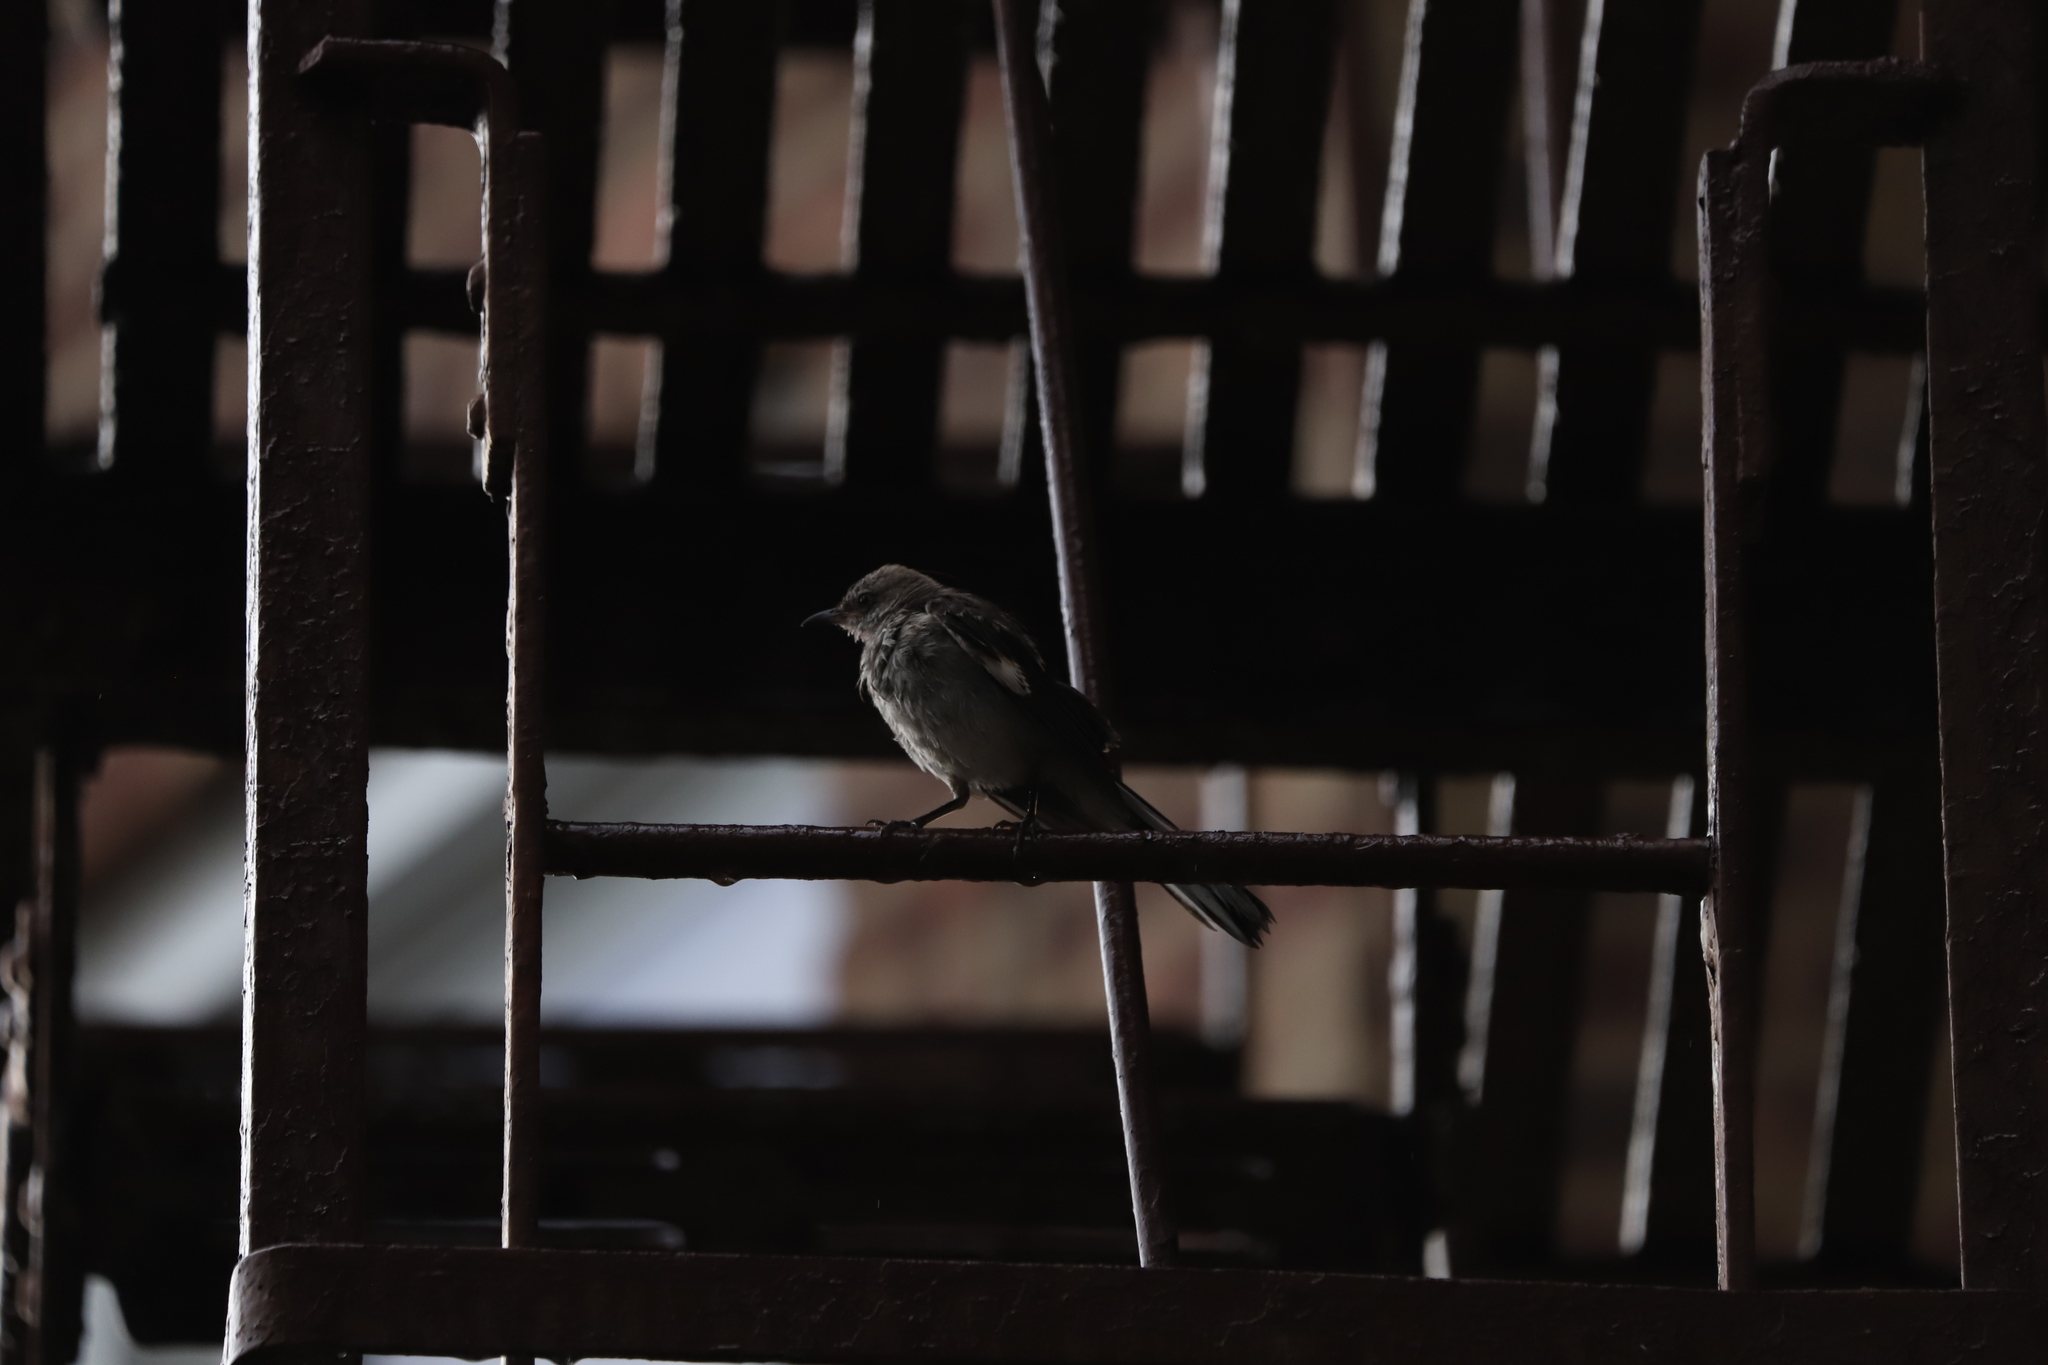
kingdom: Animalia
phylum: Chordata
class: Aves
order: Passeriformes
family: Mimidae
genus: Mimus
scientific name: Mimus polyglottos
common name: Northern mockingbird
